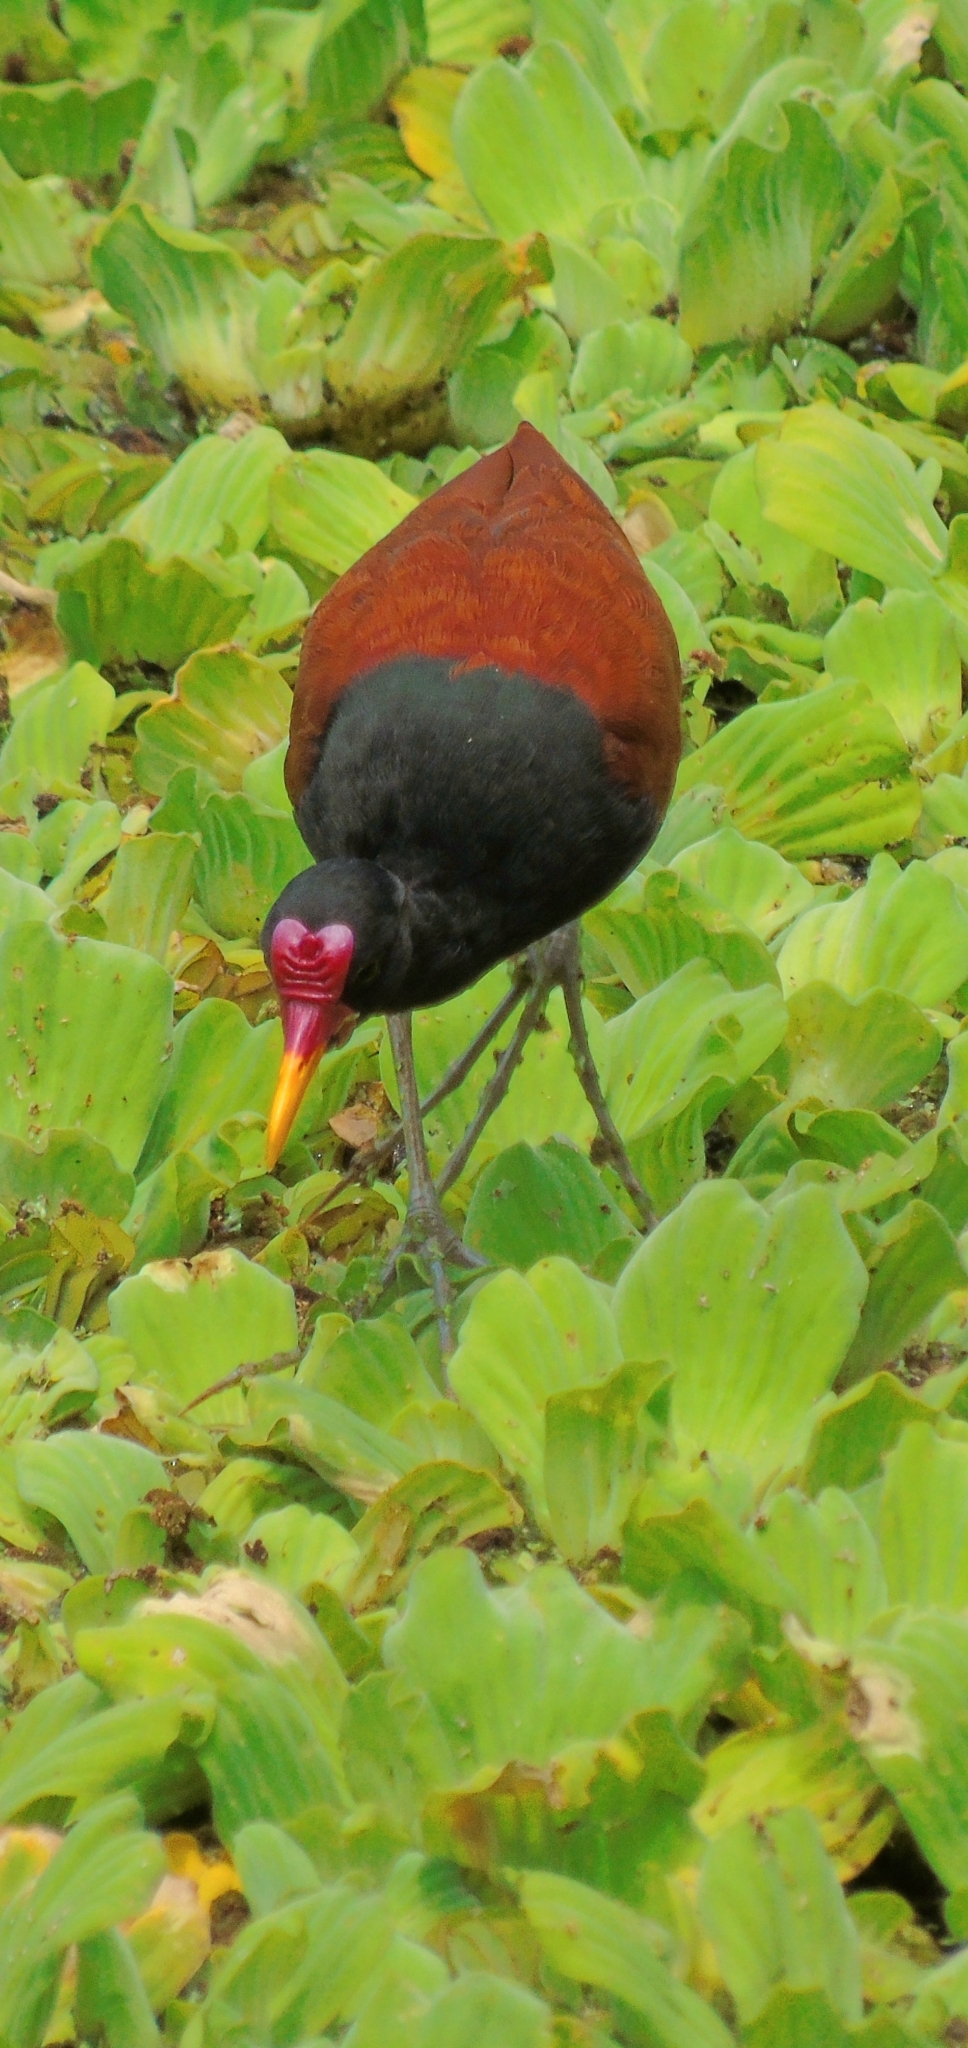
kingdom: Animalia
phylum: Chordata
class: Aves
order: Charadriiformes
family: Jacanidae
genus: Jacana
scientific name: Jacana jacana
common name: Wattled jacana
